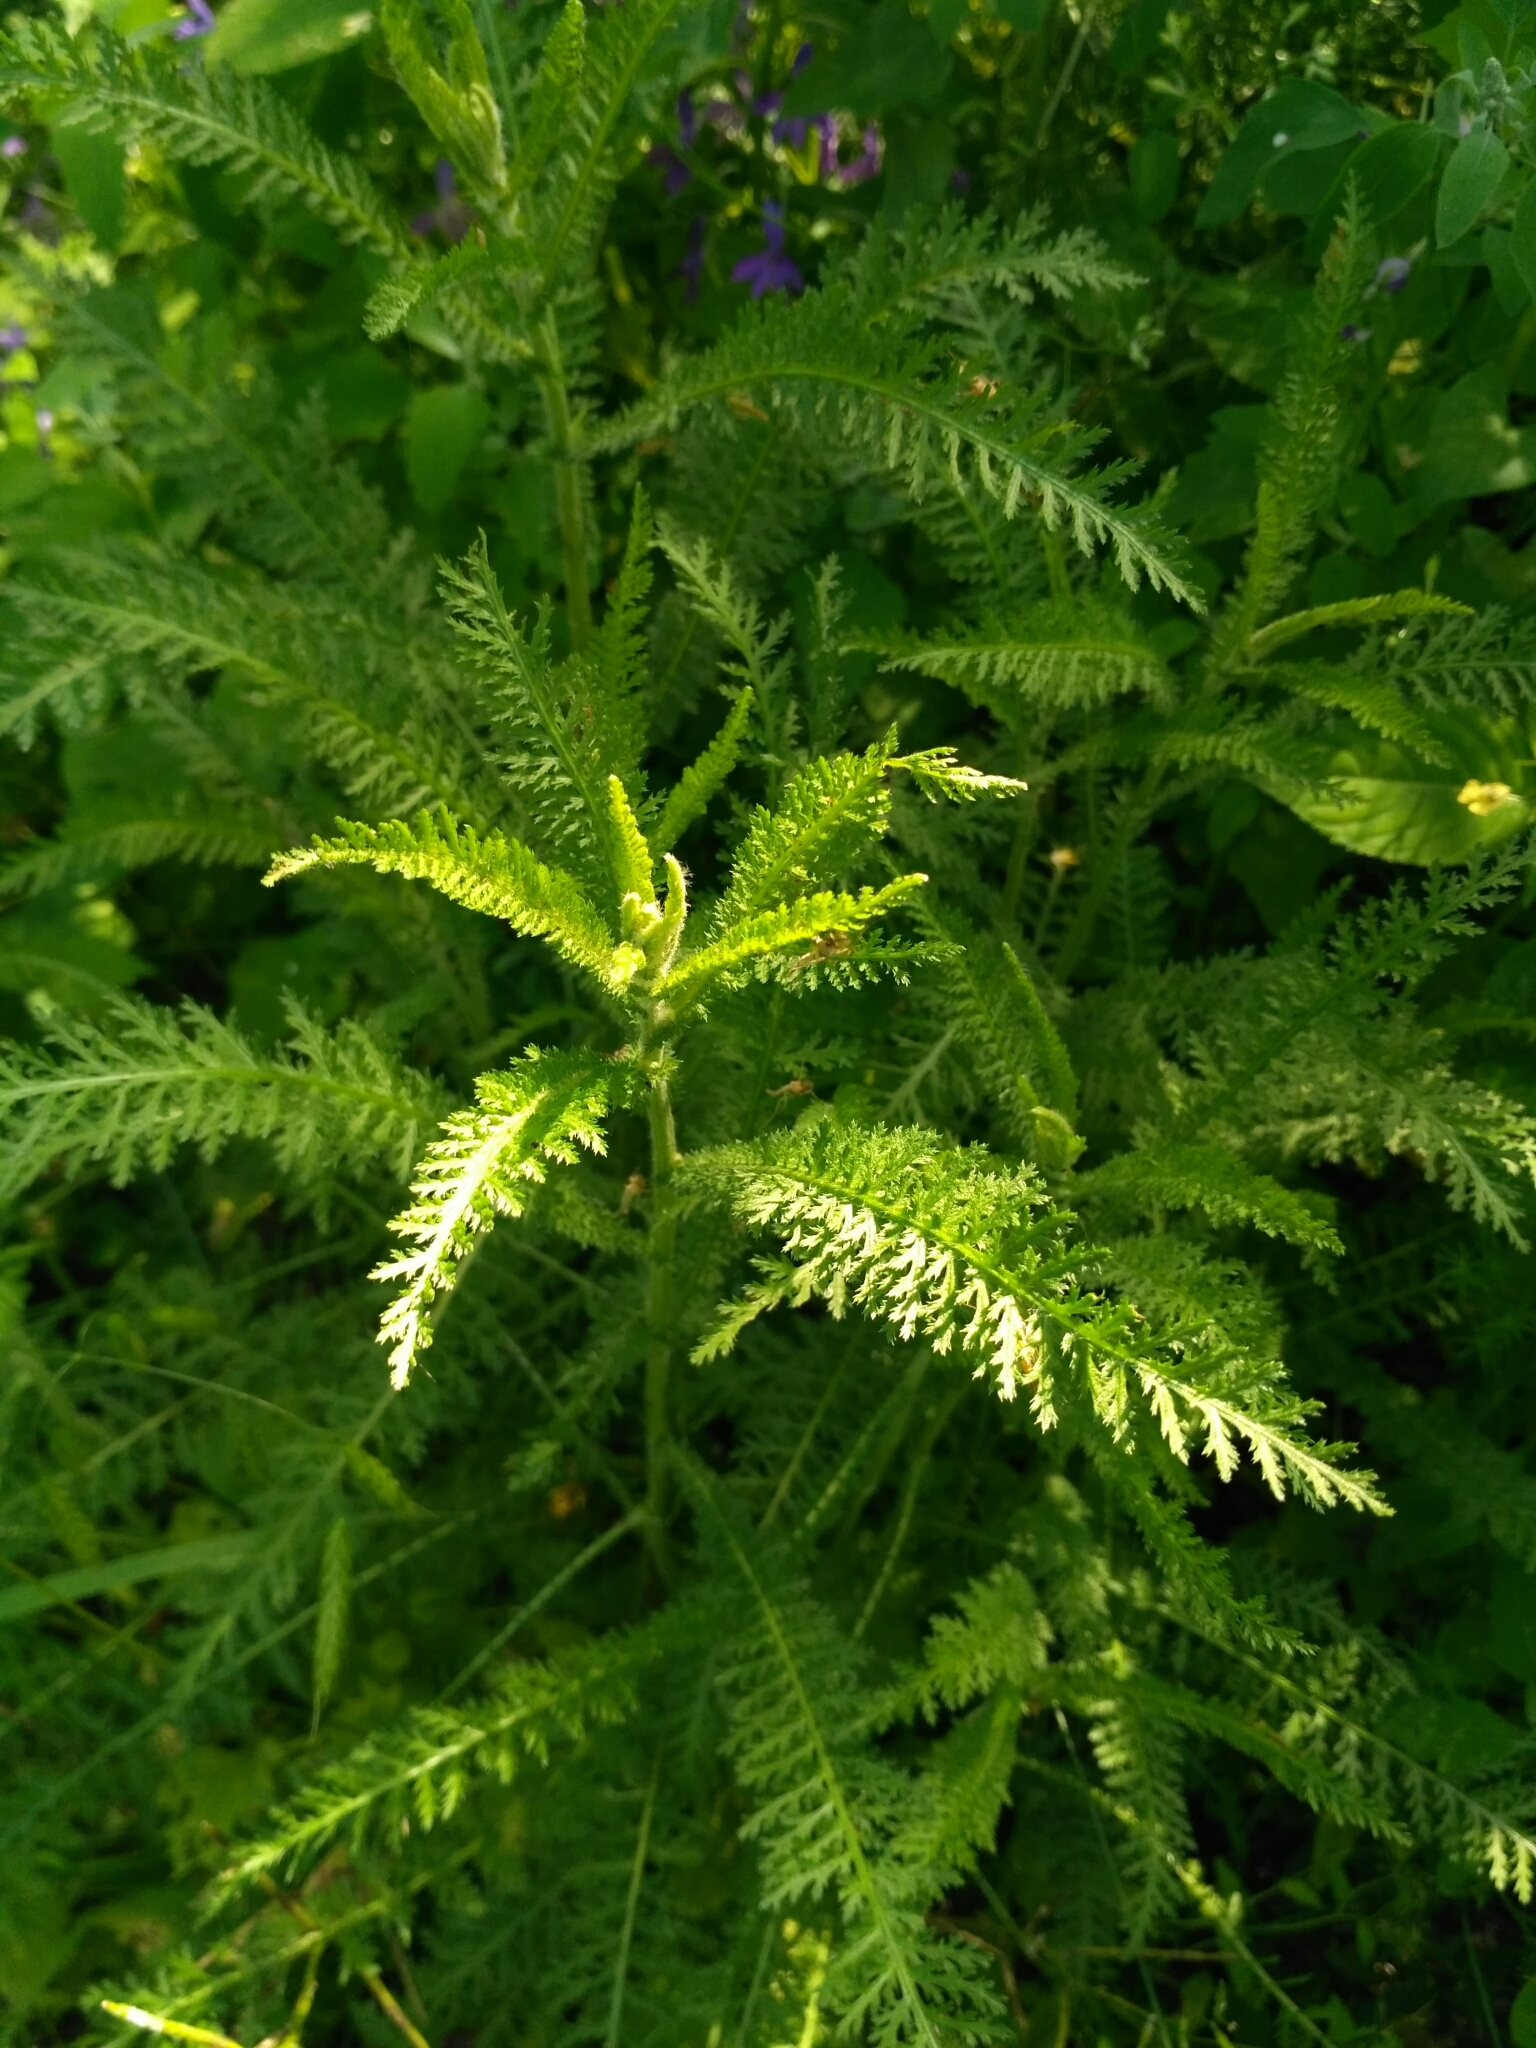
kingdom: Plantae
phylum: Tracheophyta
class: Magnoliopsida
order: Asterales
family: Asteraceae
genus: Achillea
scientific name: Achillea millefolium
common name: Yarrow
